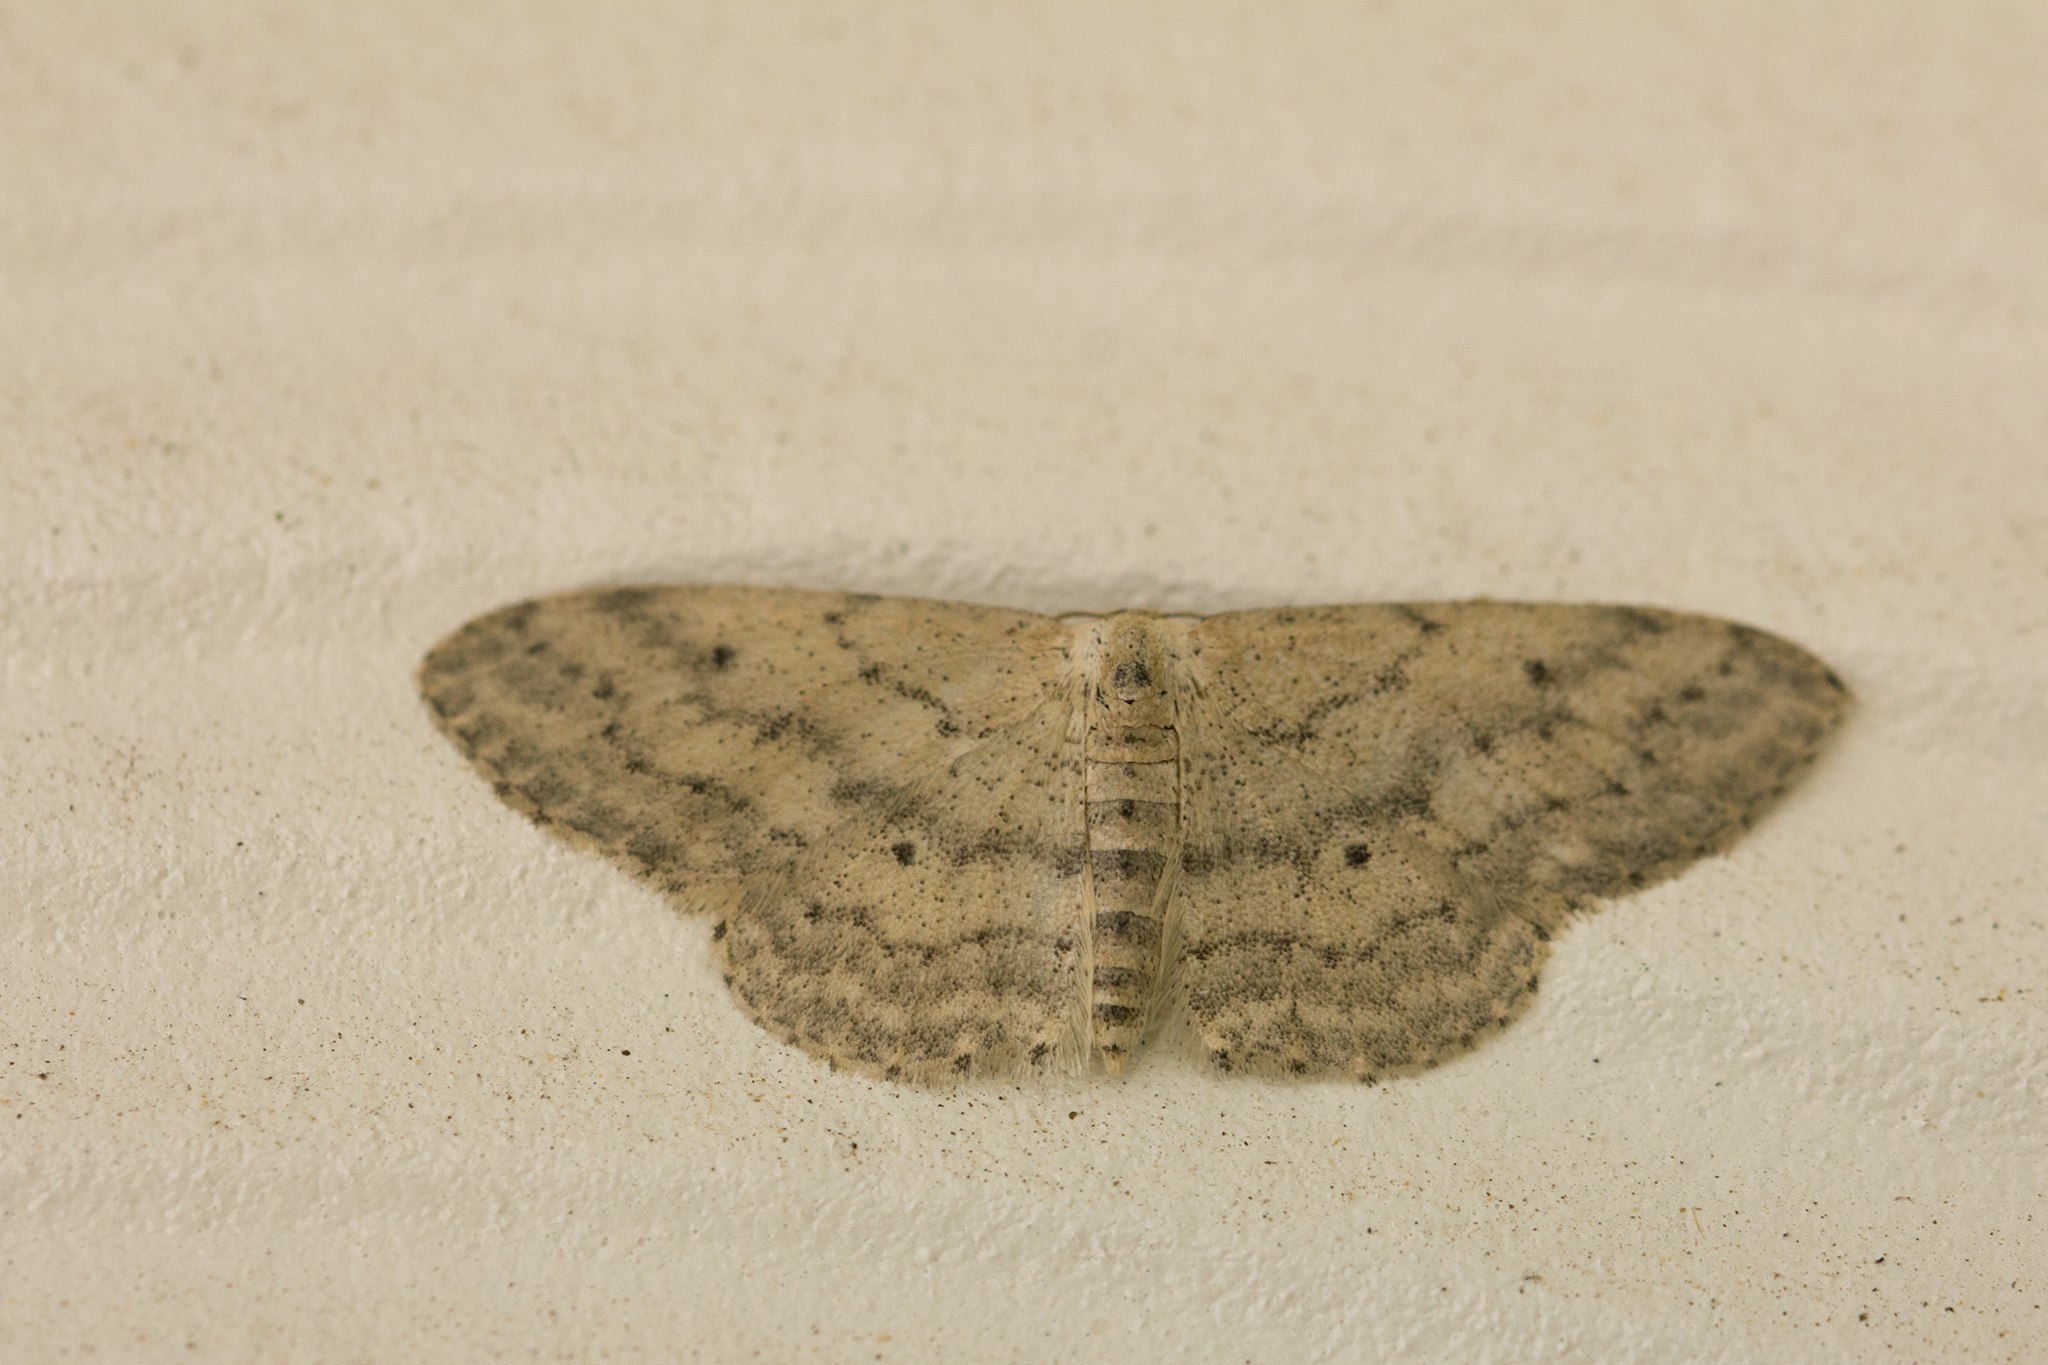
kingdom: Animalia
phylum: Arthropoda
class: Insecta
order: Lepidoptera
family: Geometridae
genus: Idaea
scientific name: Idaea seriata
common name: Small dusty wave
